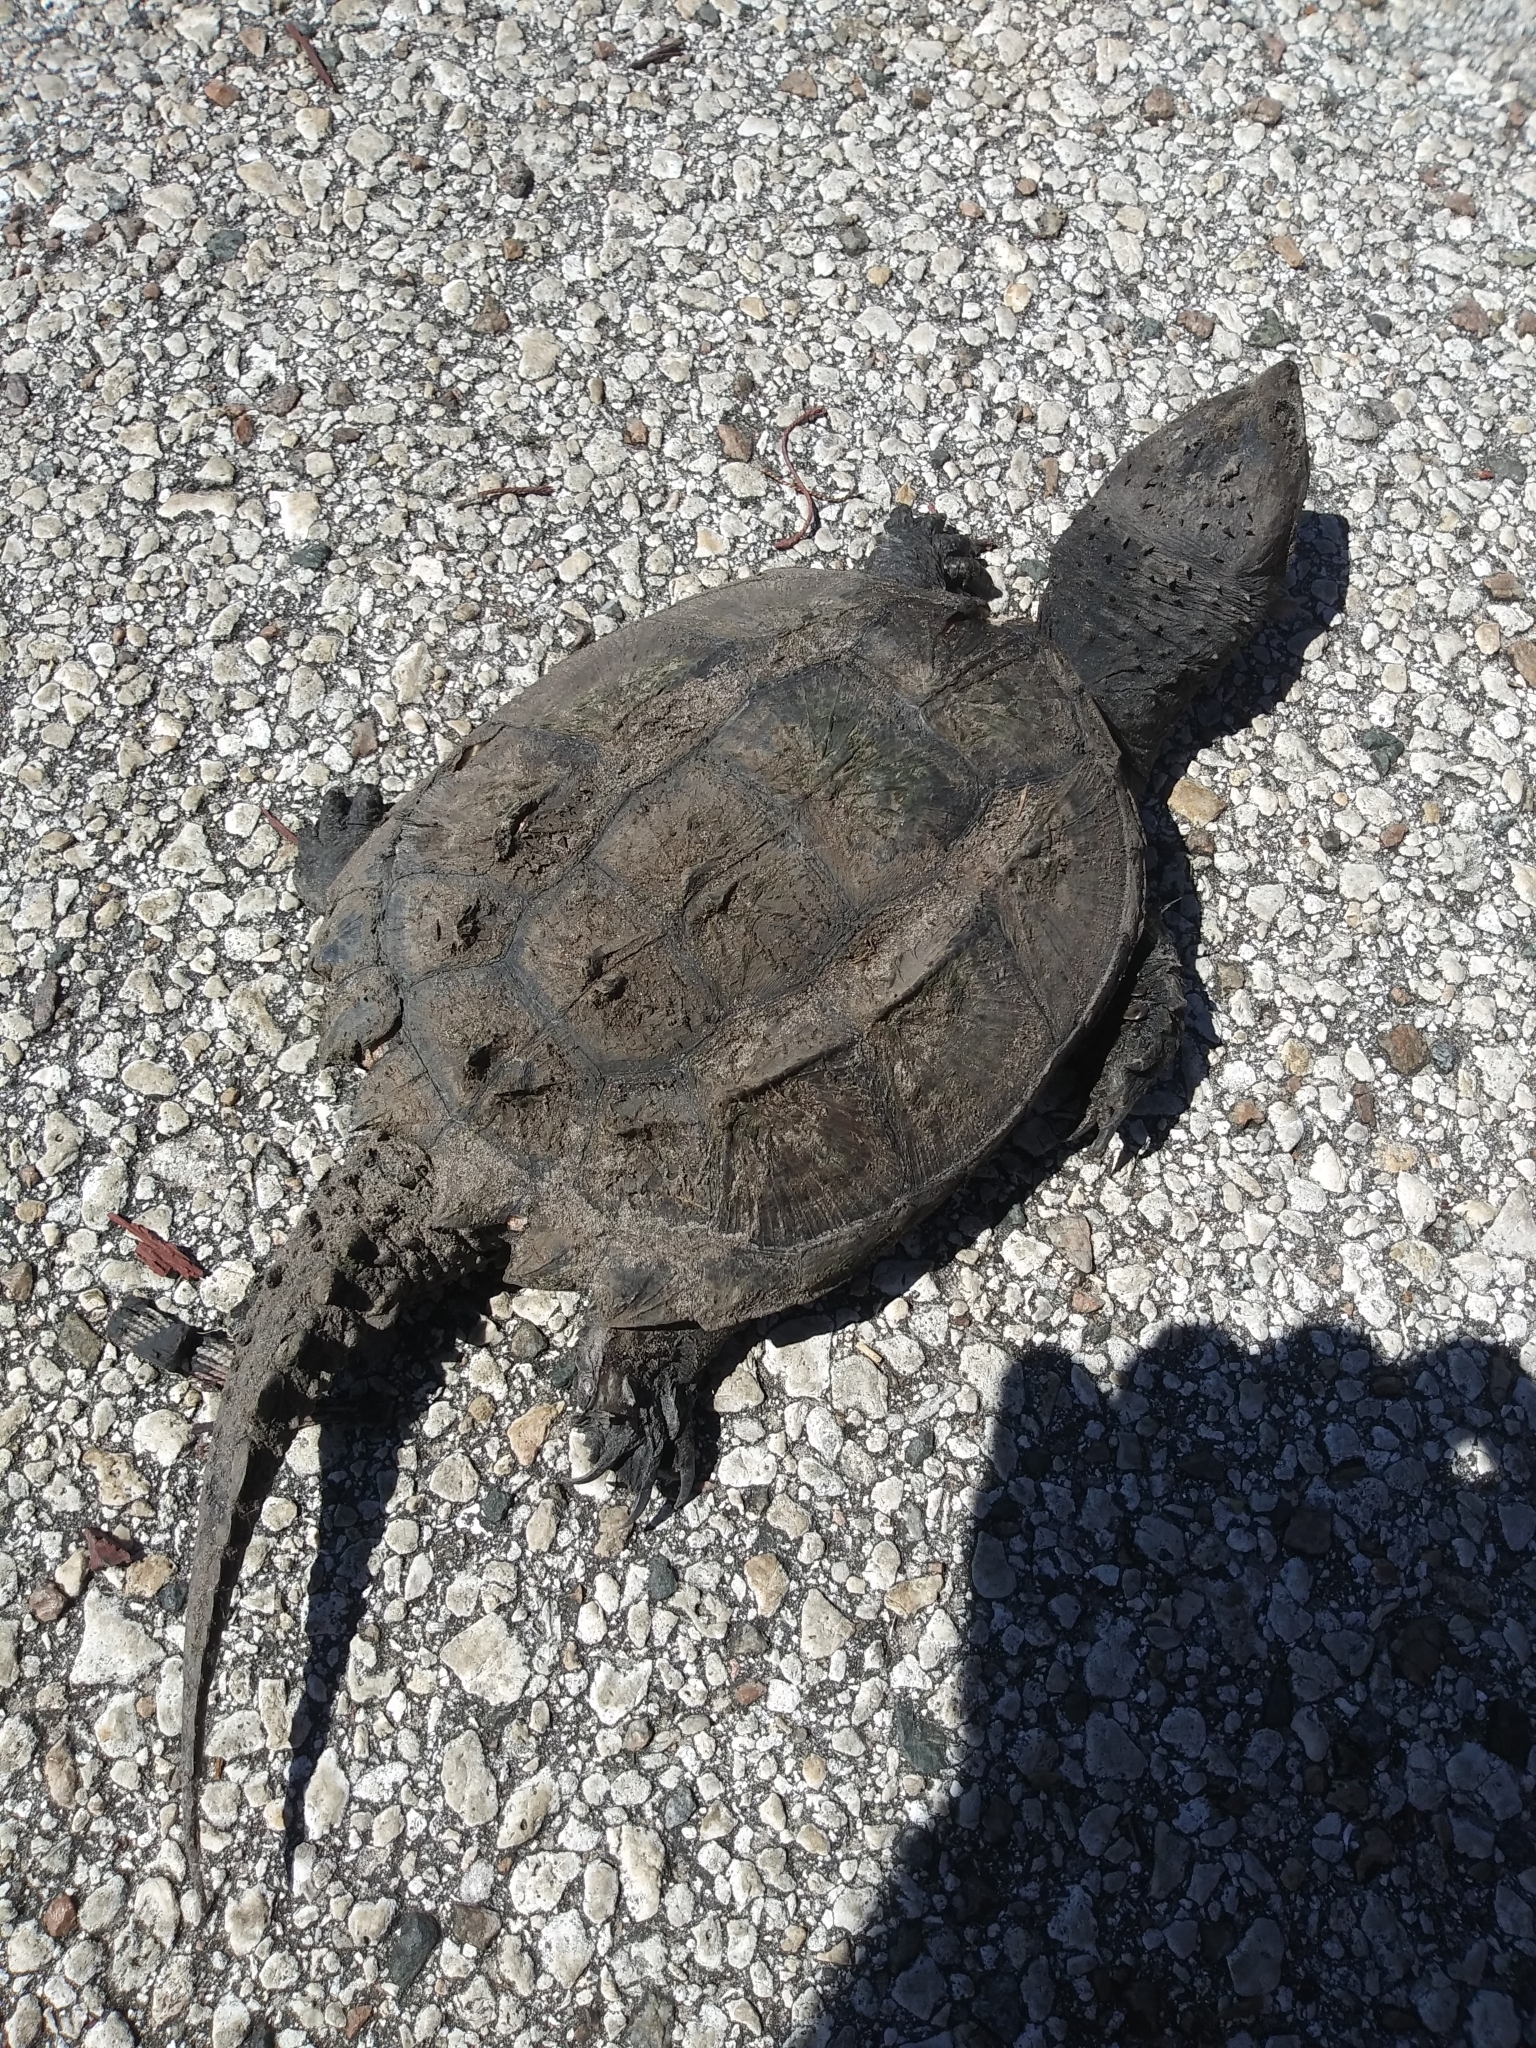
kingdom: Animalia
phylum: Chordata
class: Testudines
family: Chelydridae
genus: Chelydra
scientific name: Chelydra serpentina
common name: Common snapping turtle
